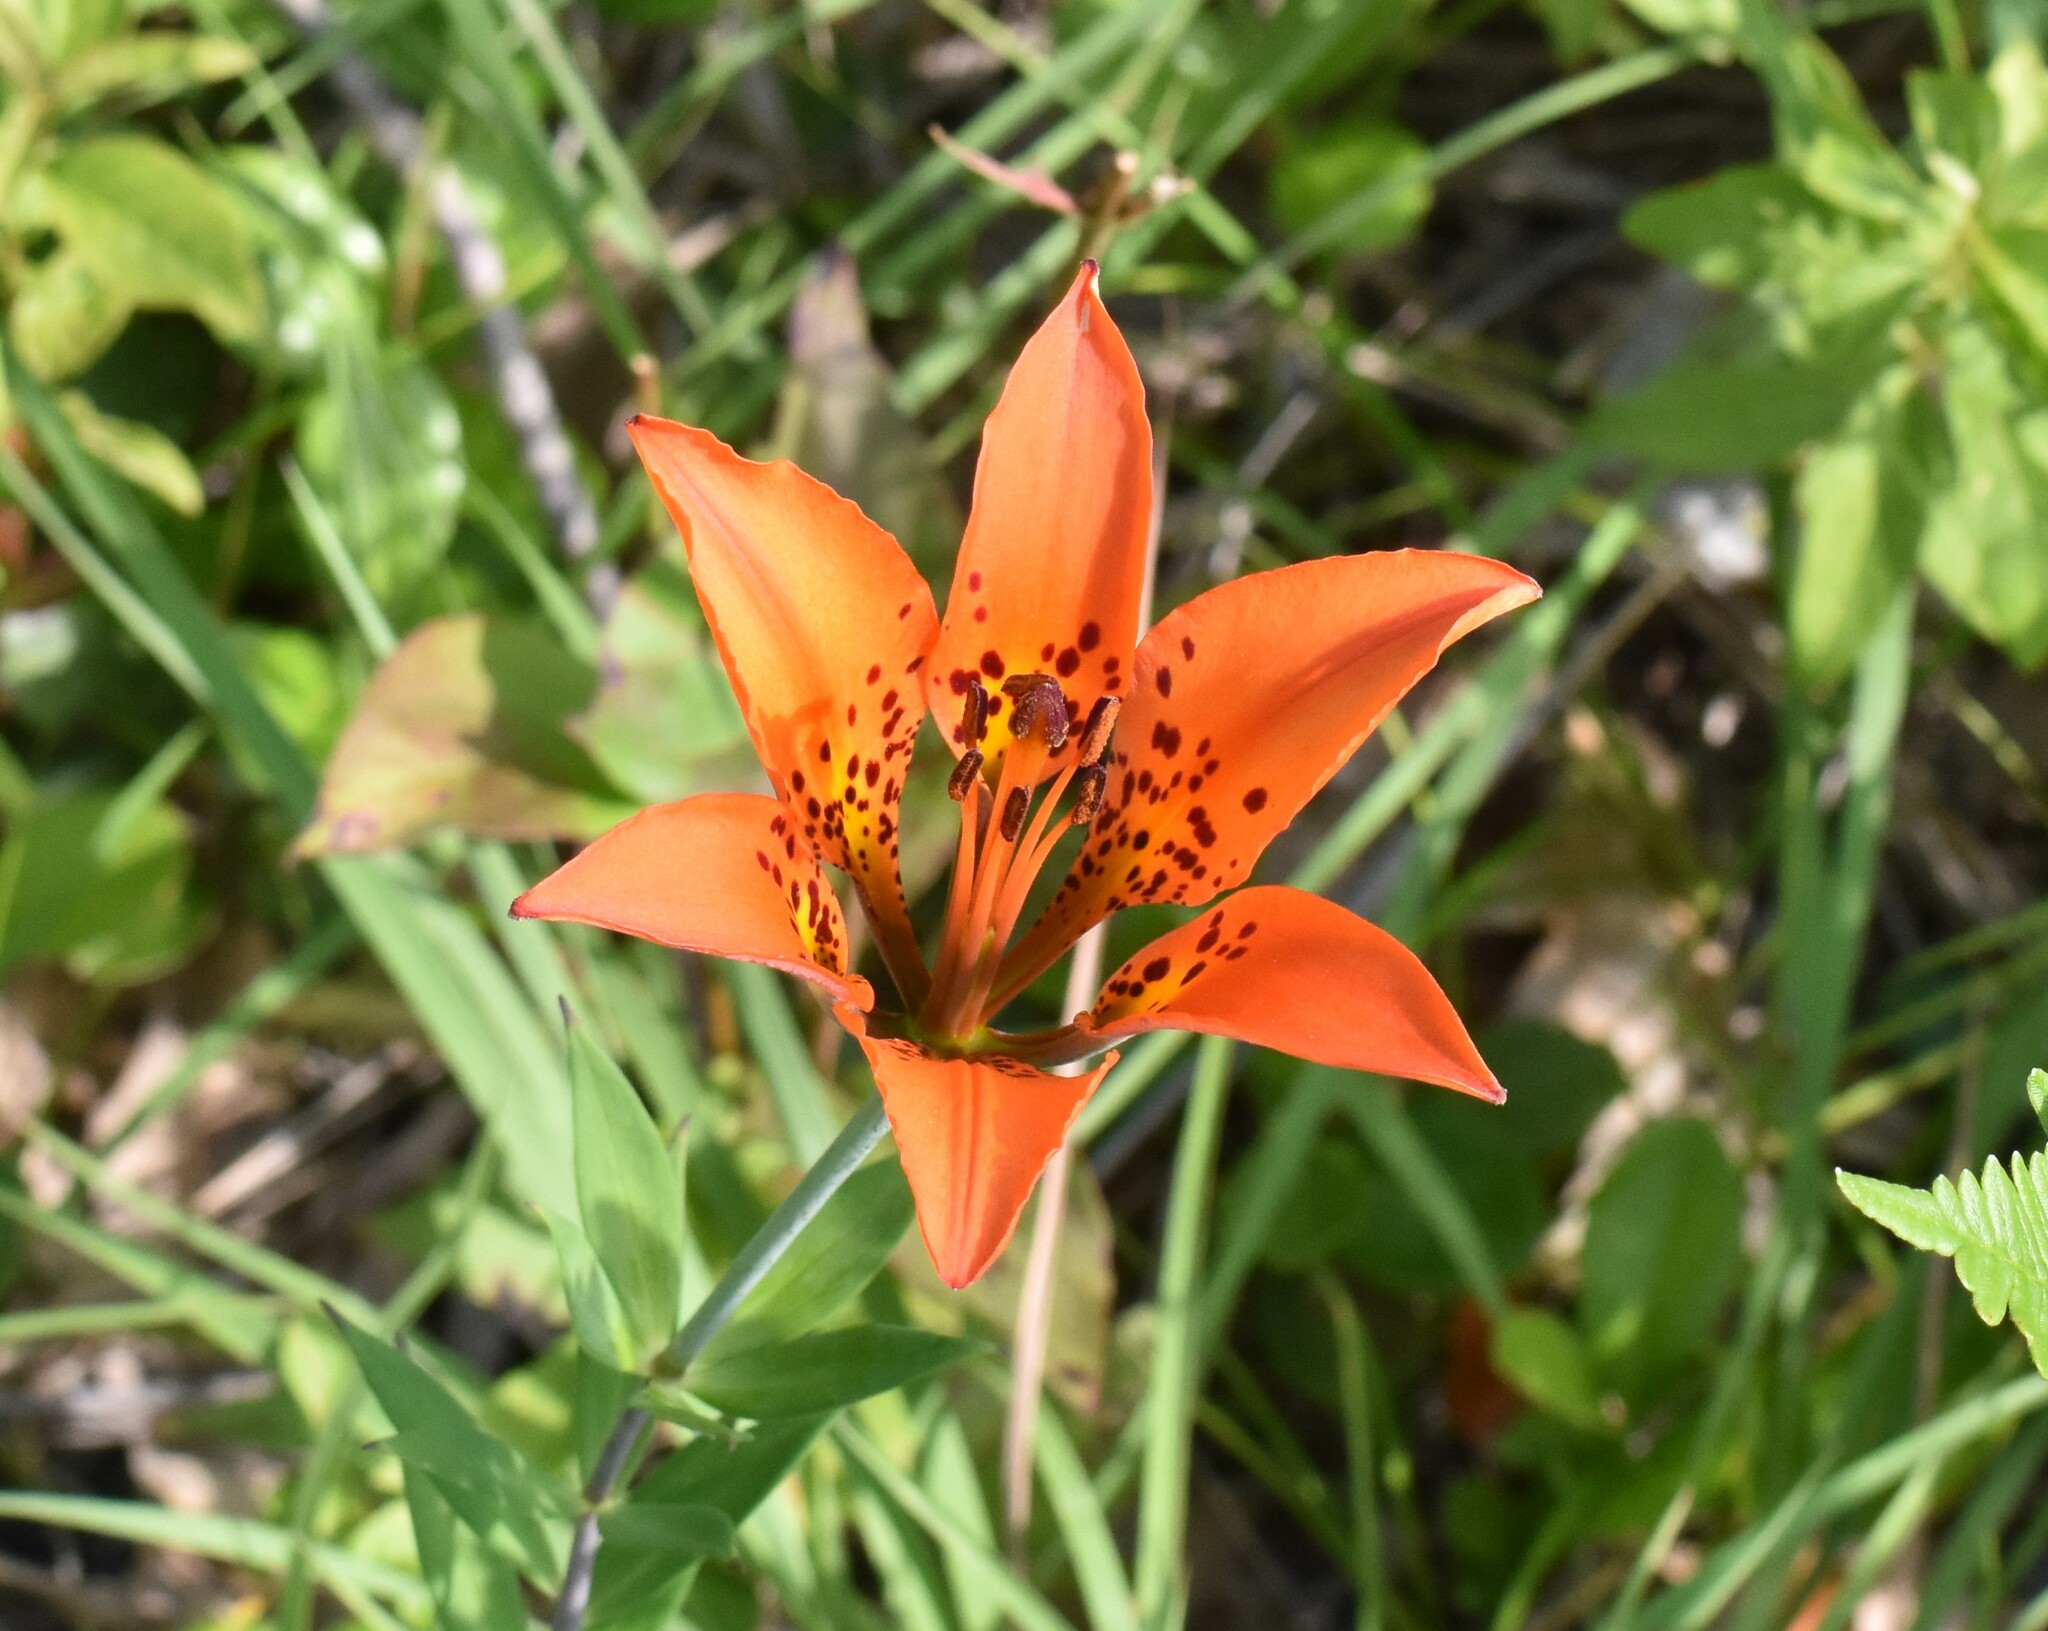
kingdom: Plantae
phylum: Tracheophyta
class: Liliopsida
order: Liliales
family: Liliaceae
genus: Lilium
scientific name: Lilium philadelphicum
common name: Red lily
